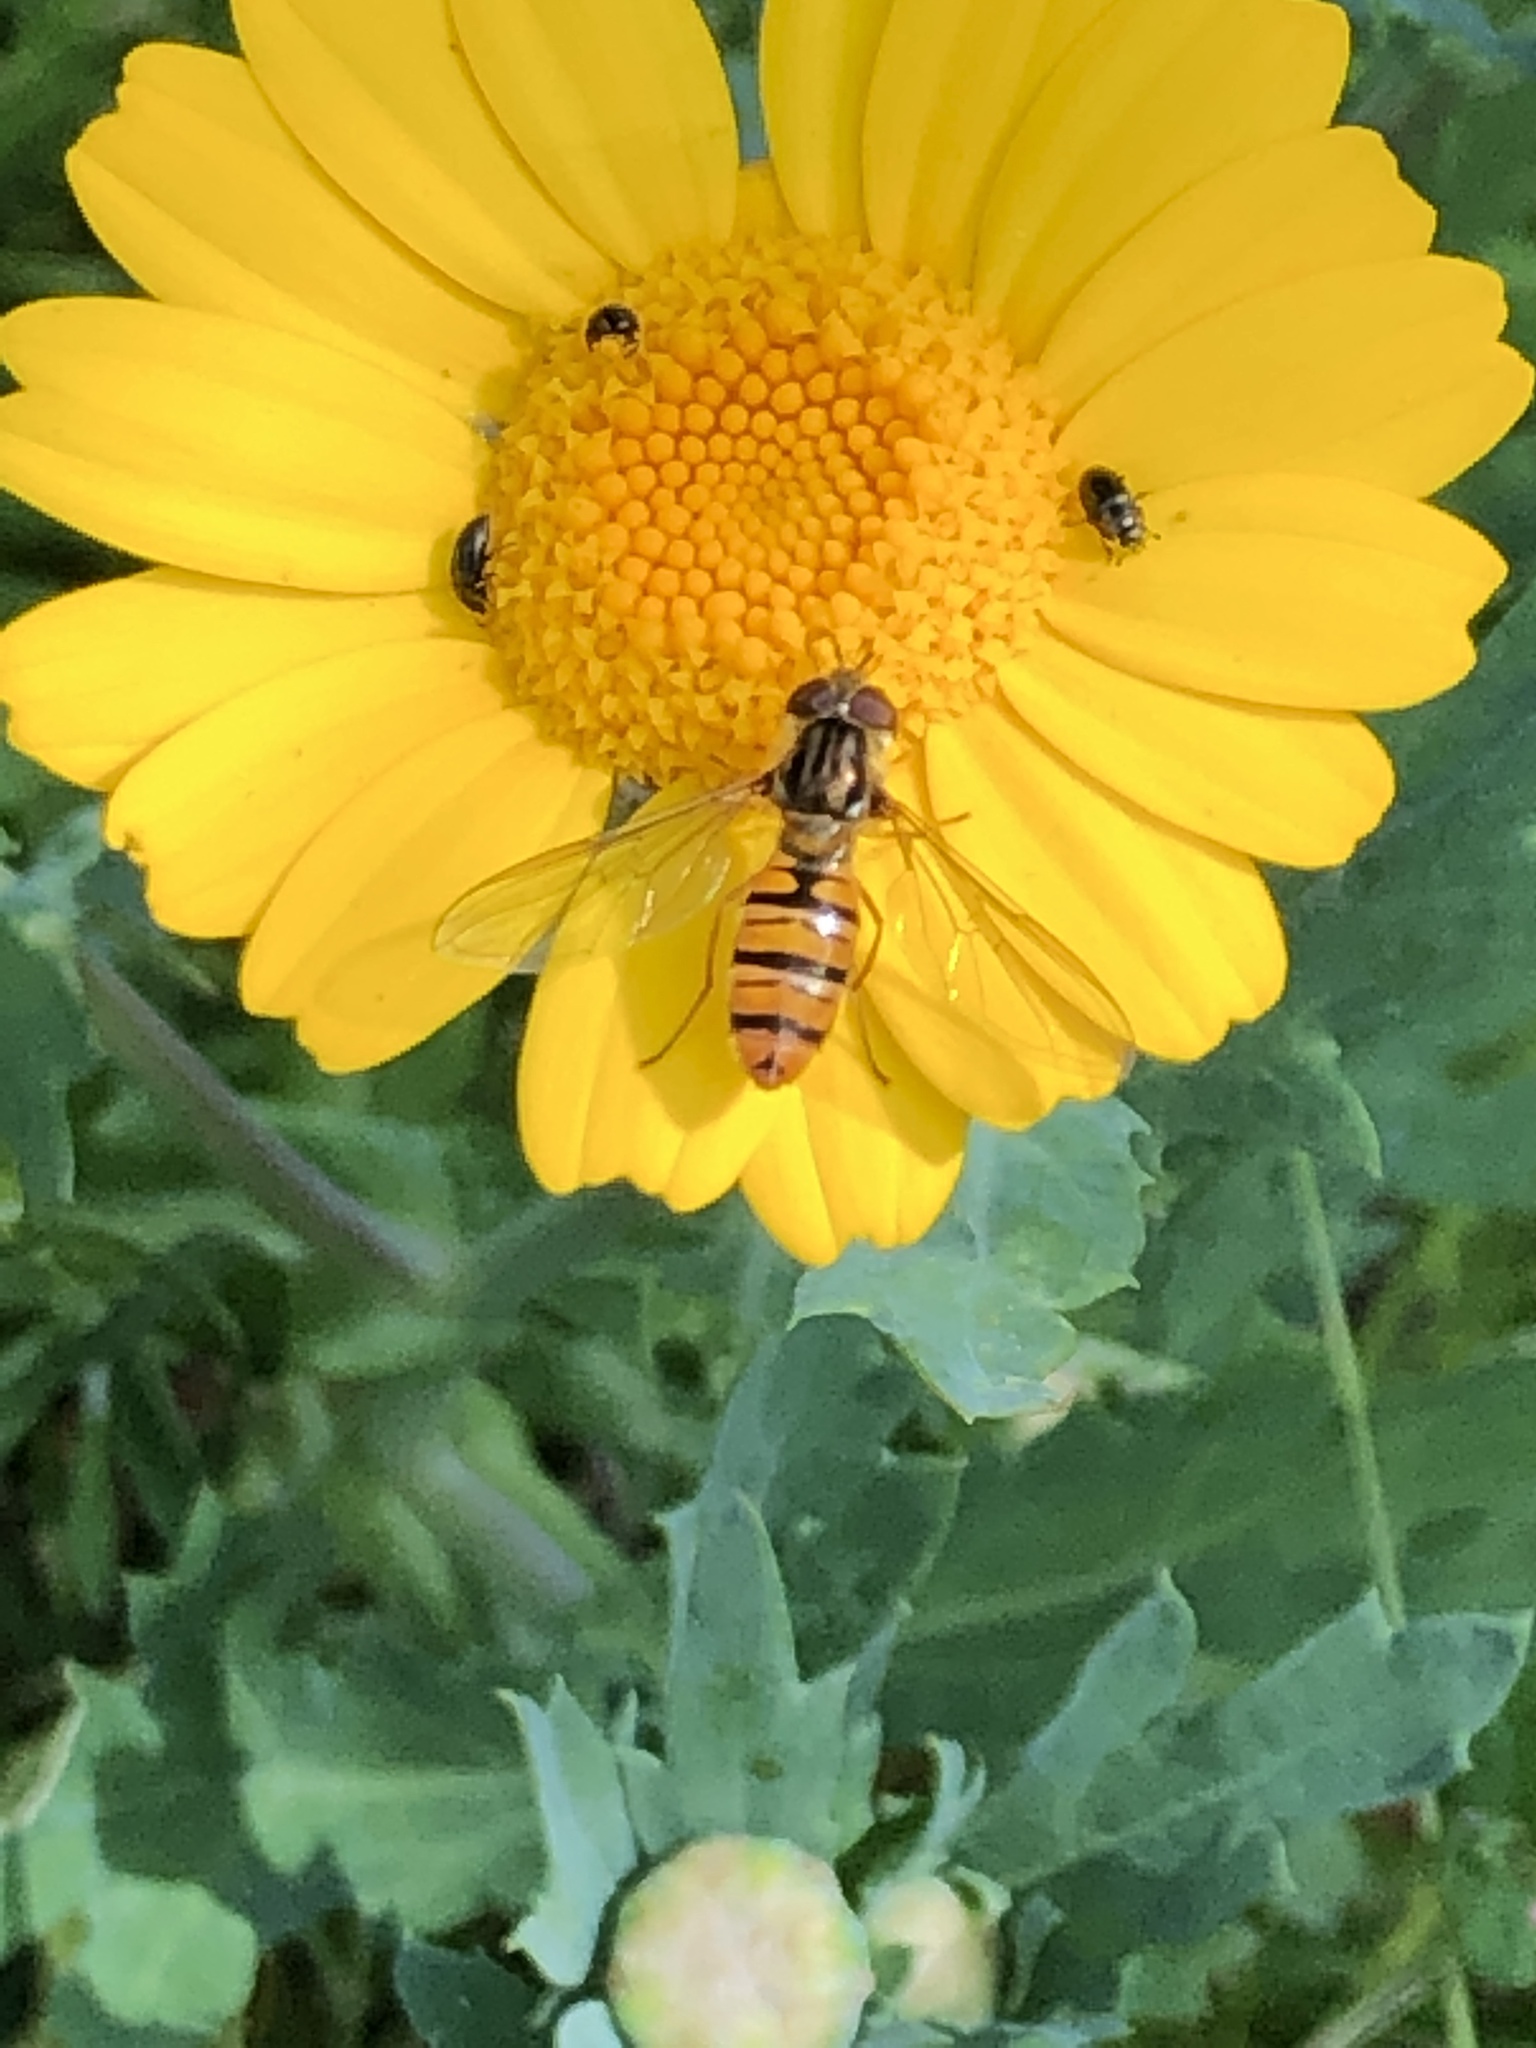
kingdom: Animalia
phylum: Arthropoda
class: Insecta
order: Diptera
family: Syrphidae
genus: Episyrphus
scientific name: Episyrphus balteatus
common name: Marmalade hoverfly
